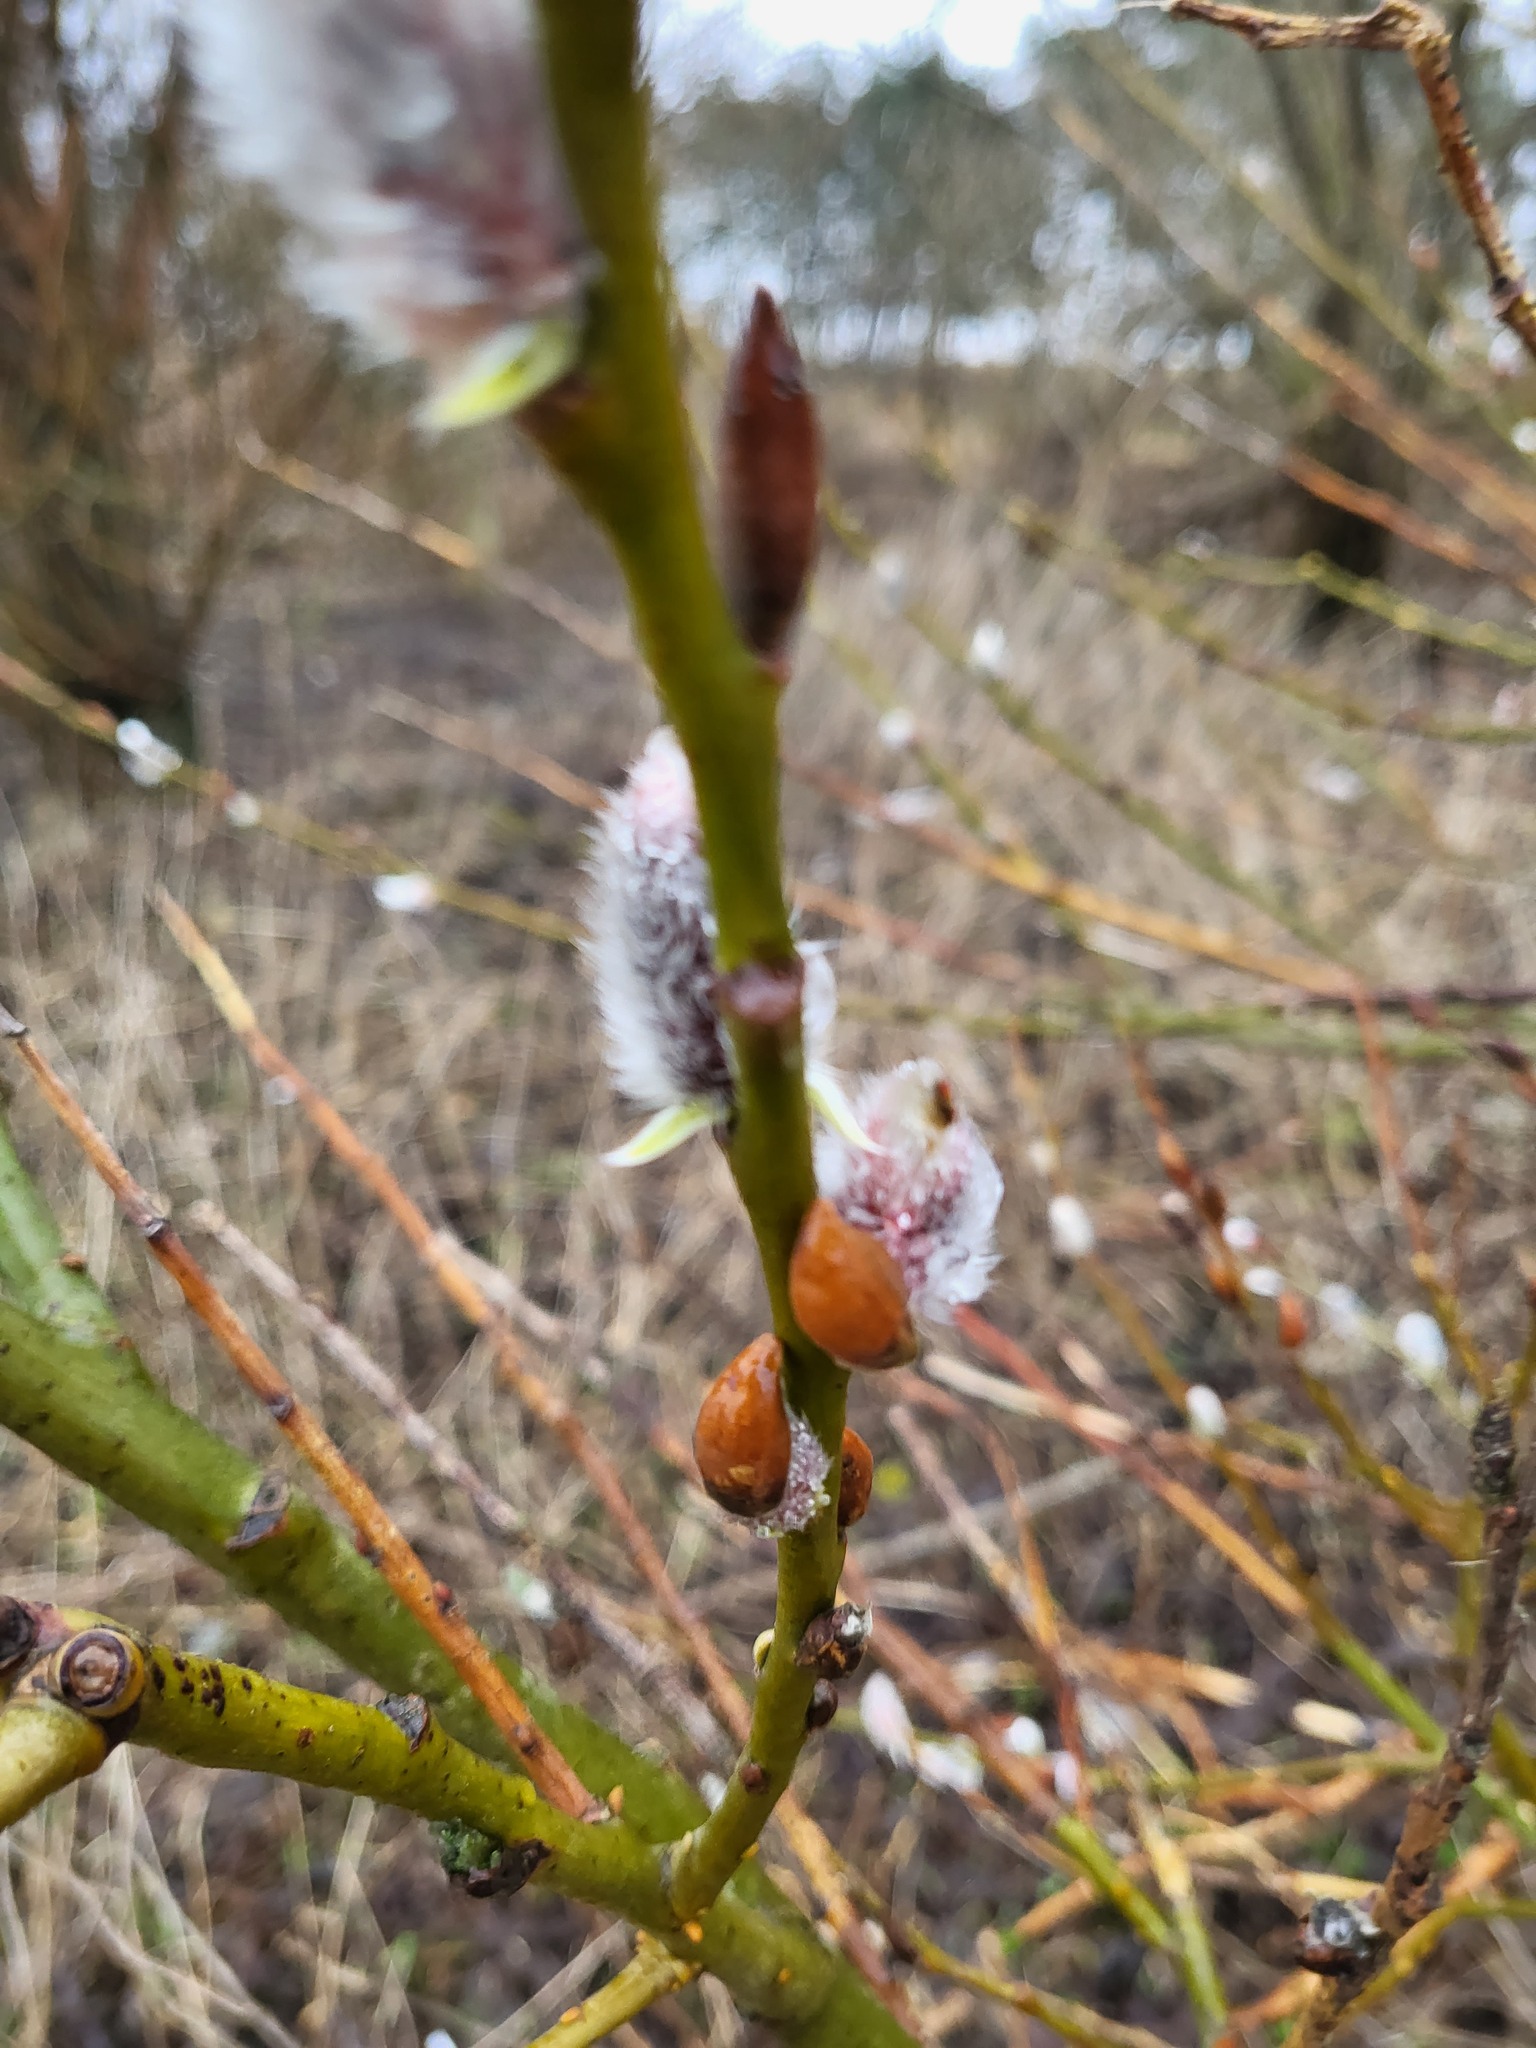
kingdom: Plantae
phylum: Tracheophyta
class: Magnoliopsida
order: Malpighiales
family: Salicaceae
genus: Salix
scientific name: Salix caprea
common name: Goat willow
